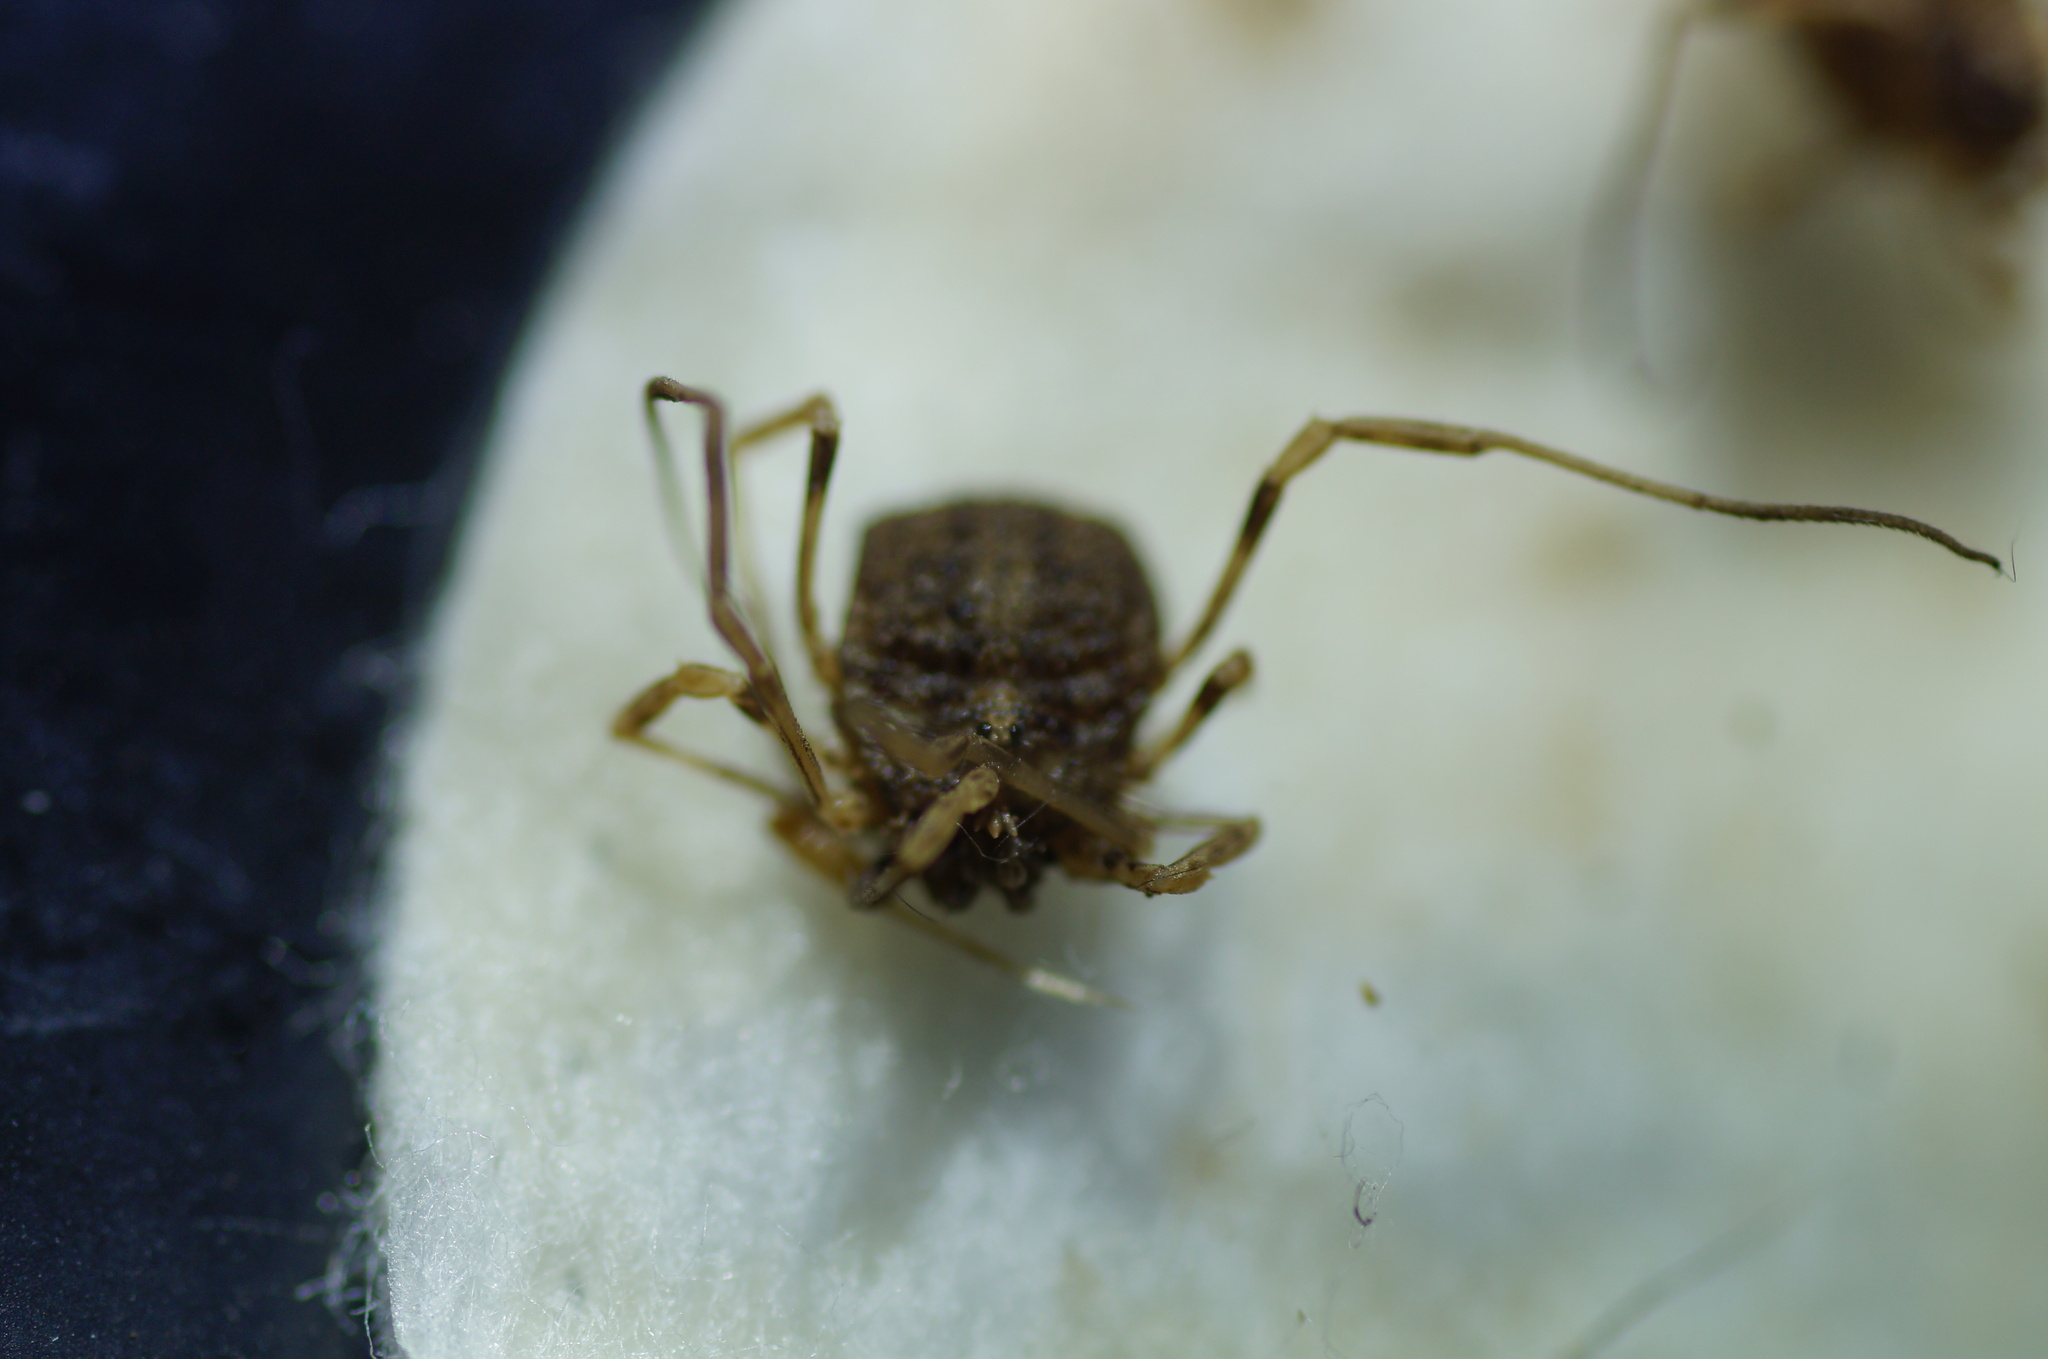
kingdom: Animalia
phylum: Arthropoda
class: Arachnida
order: Opiliones
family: Phalangiidae
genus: Odiellus
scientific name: Odiellus lendlii
